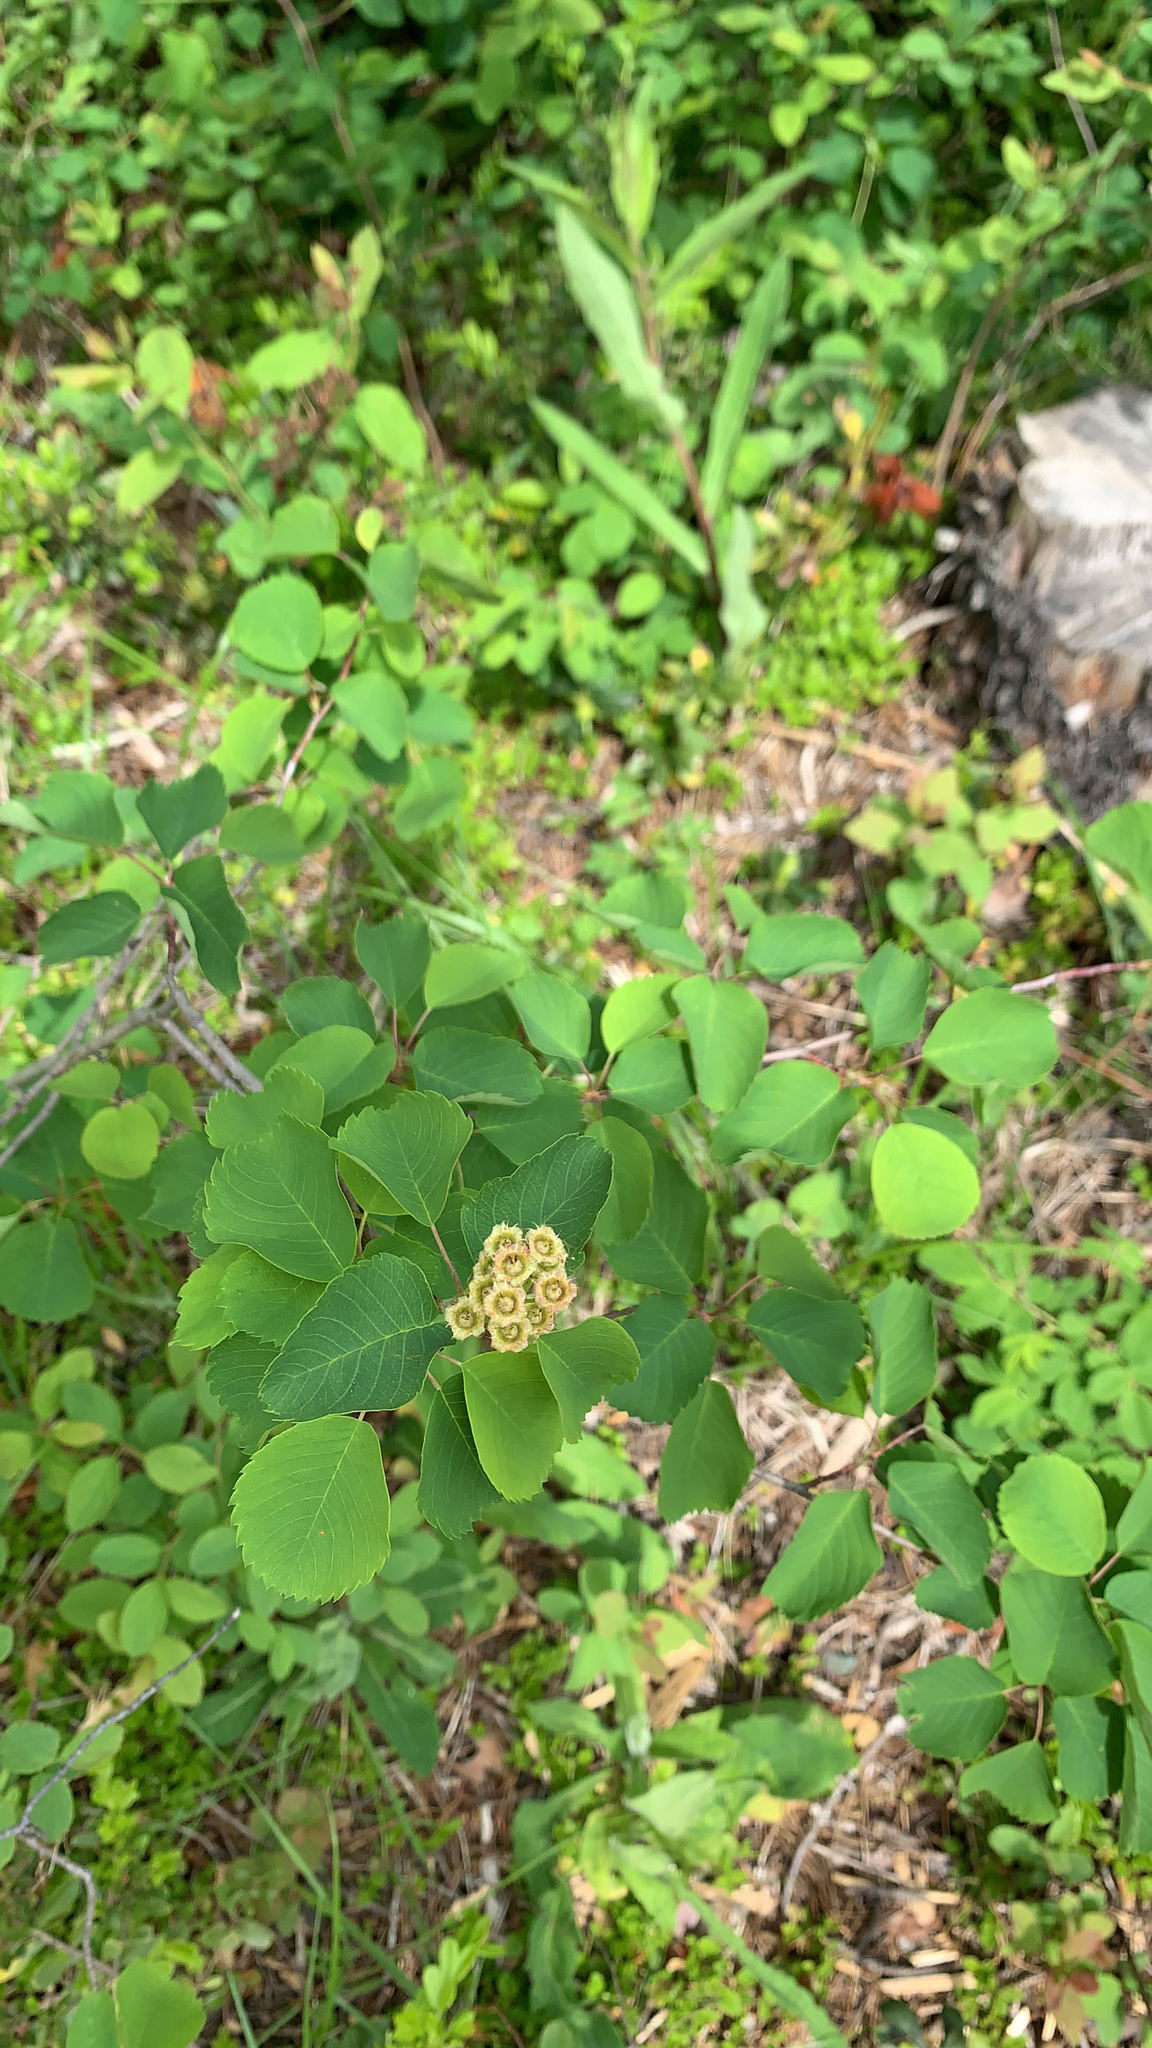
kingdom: Plantae
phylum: Tracheophyta
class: Magnoliopsida
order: Rosales
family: Rosaceae
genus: Amelanchier
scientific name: Amelanchier alnifolia
